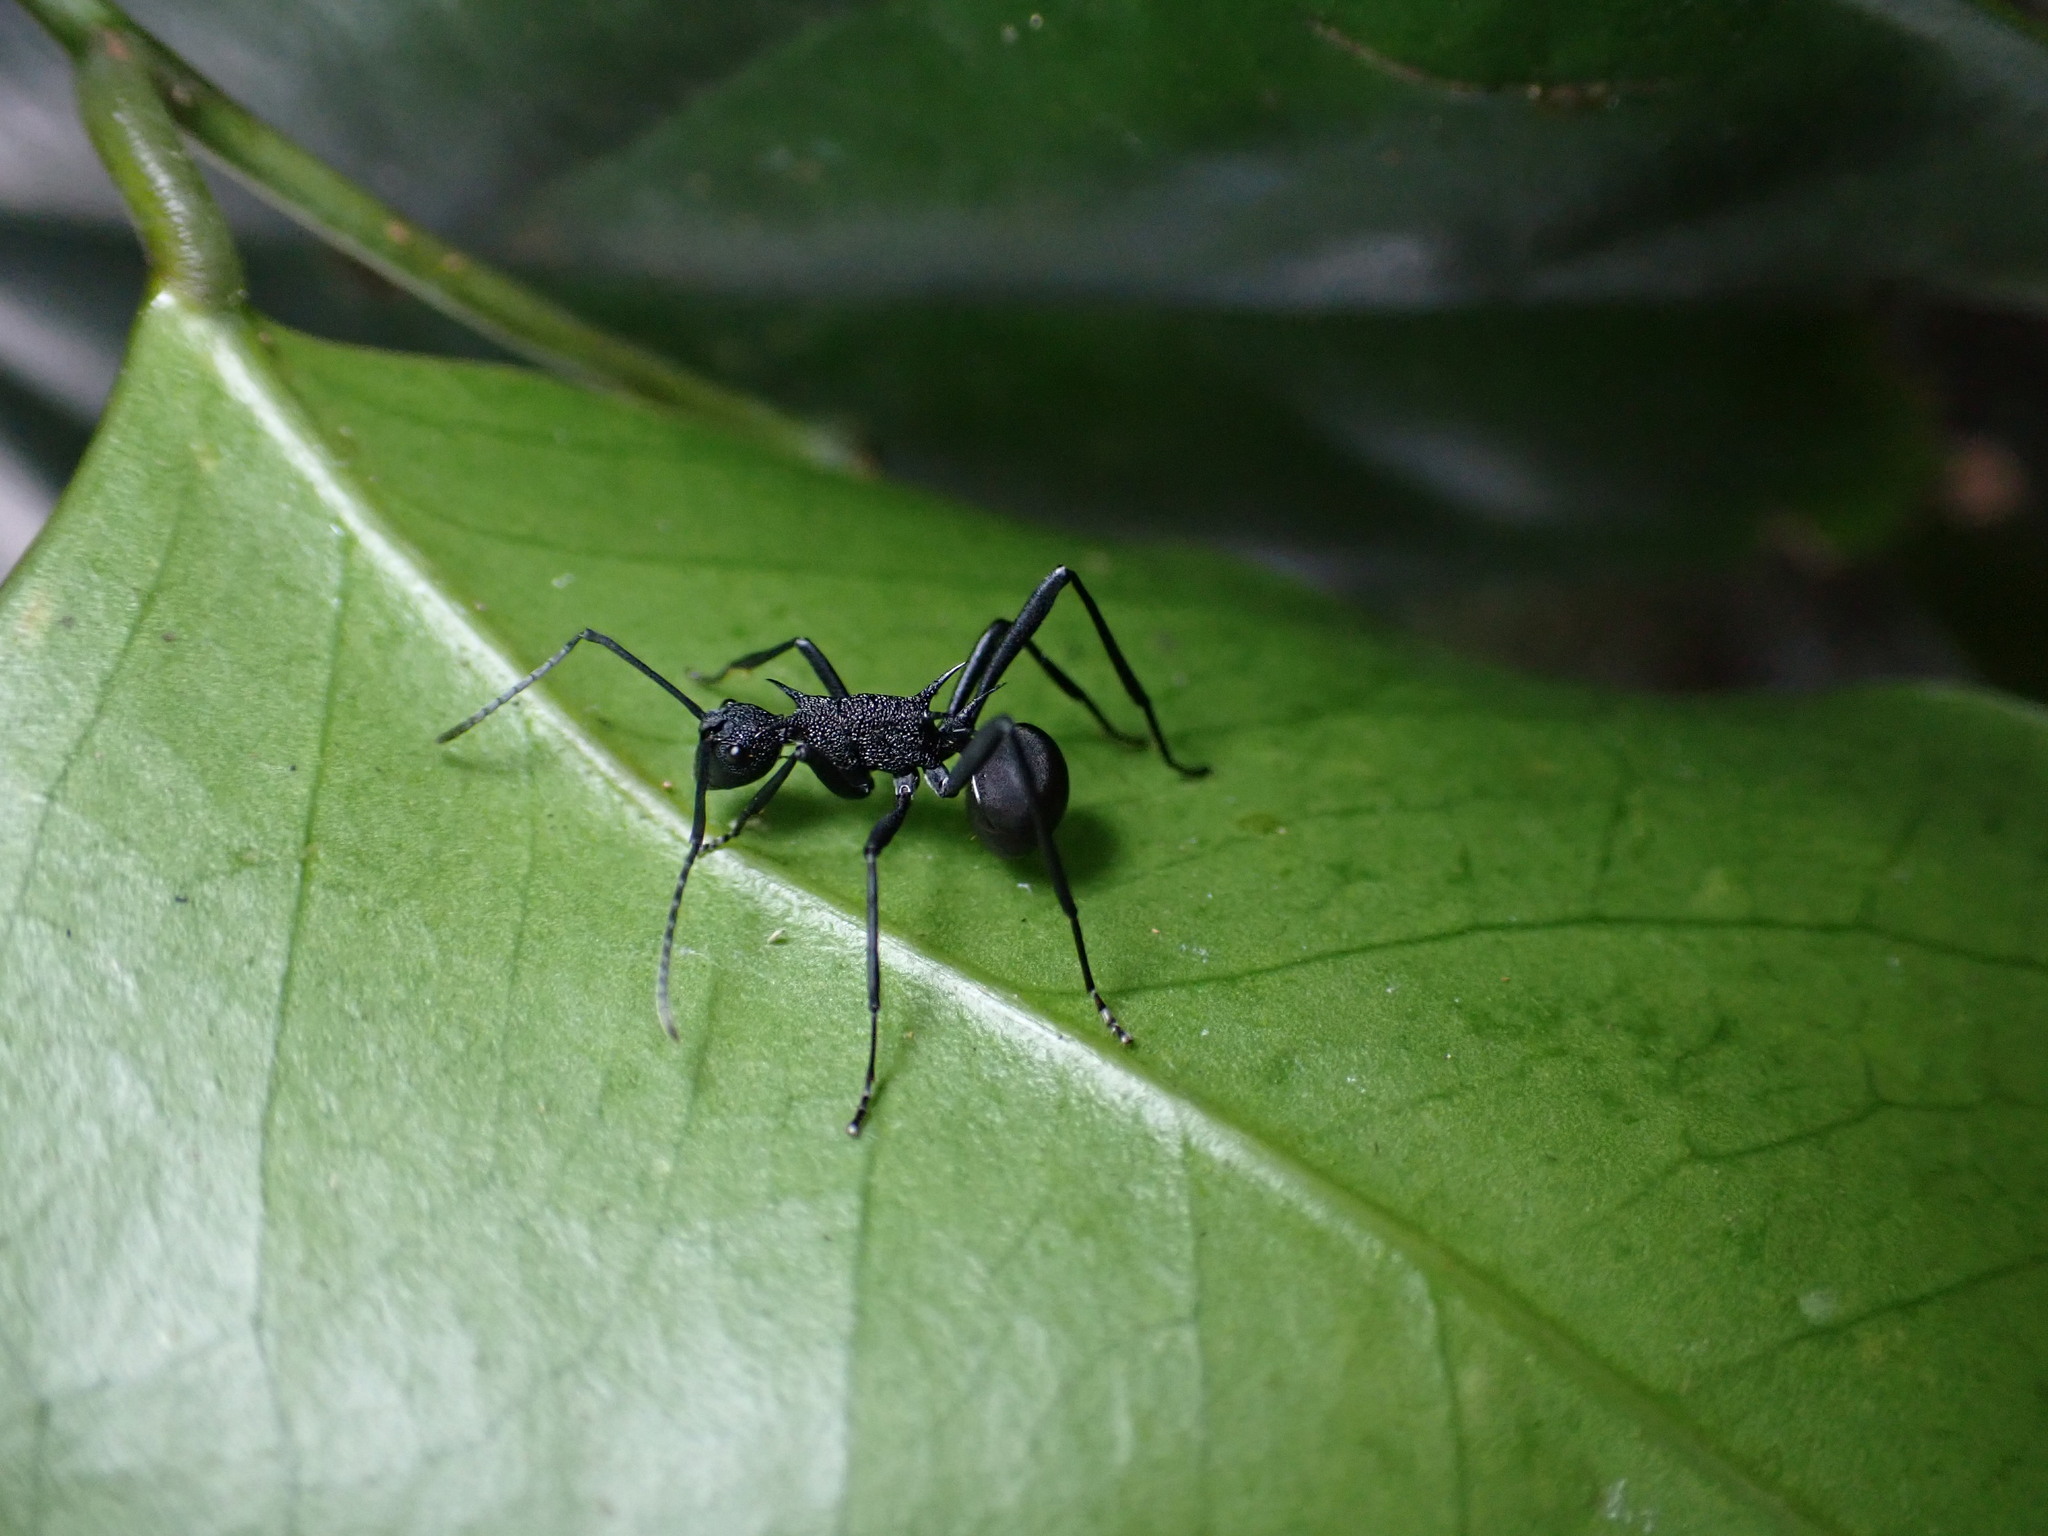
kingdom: Animalia
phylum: Arthropoda
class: Insecta
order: Hymenoptera
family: Formicidae
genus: Polyrhachis
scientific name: Polyrhachis armata
